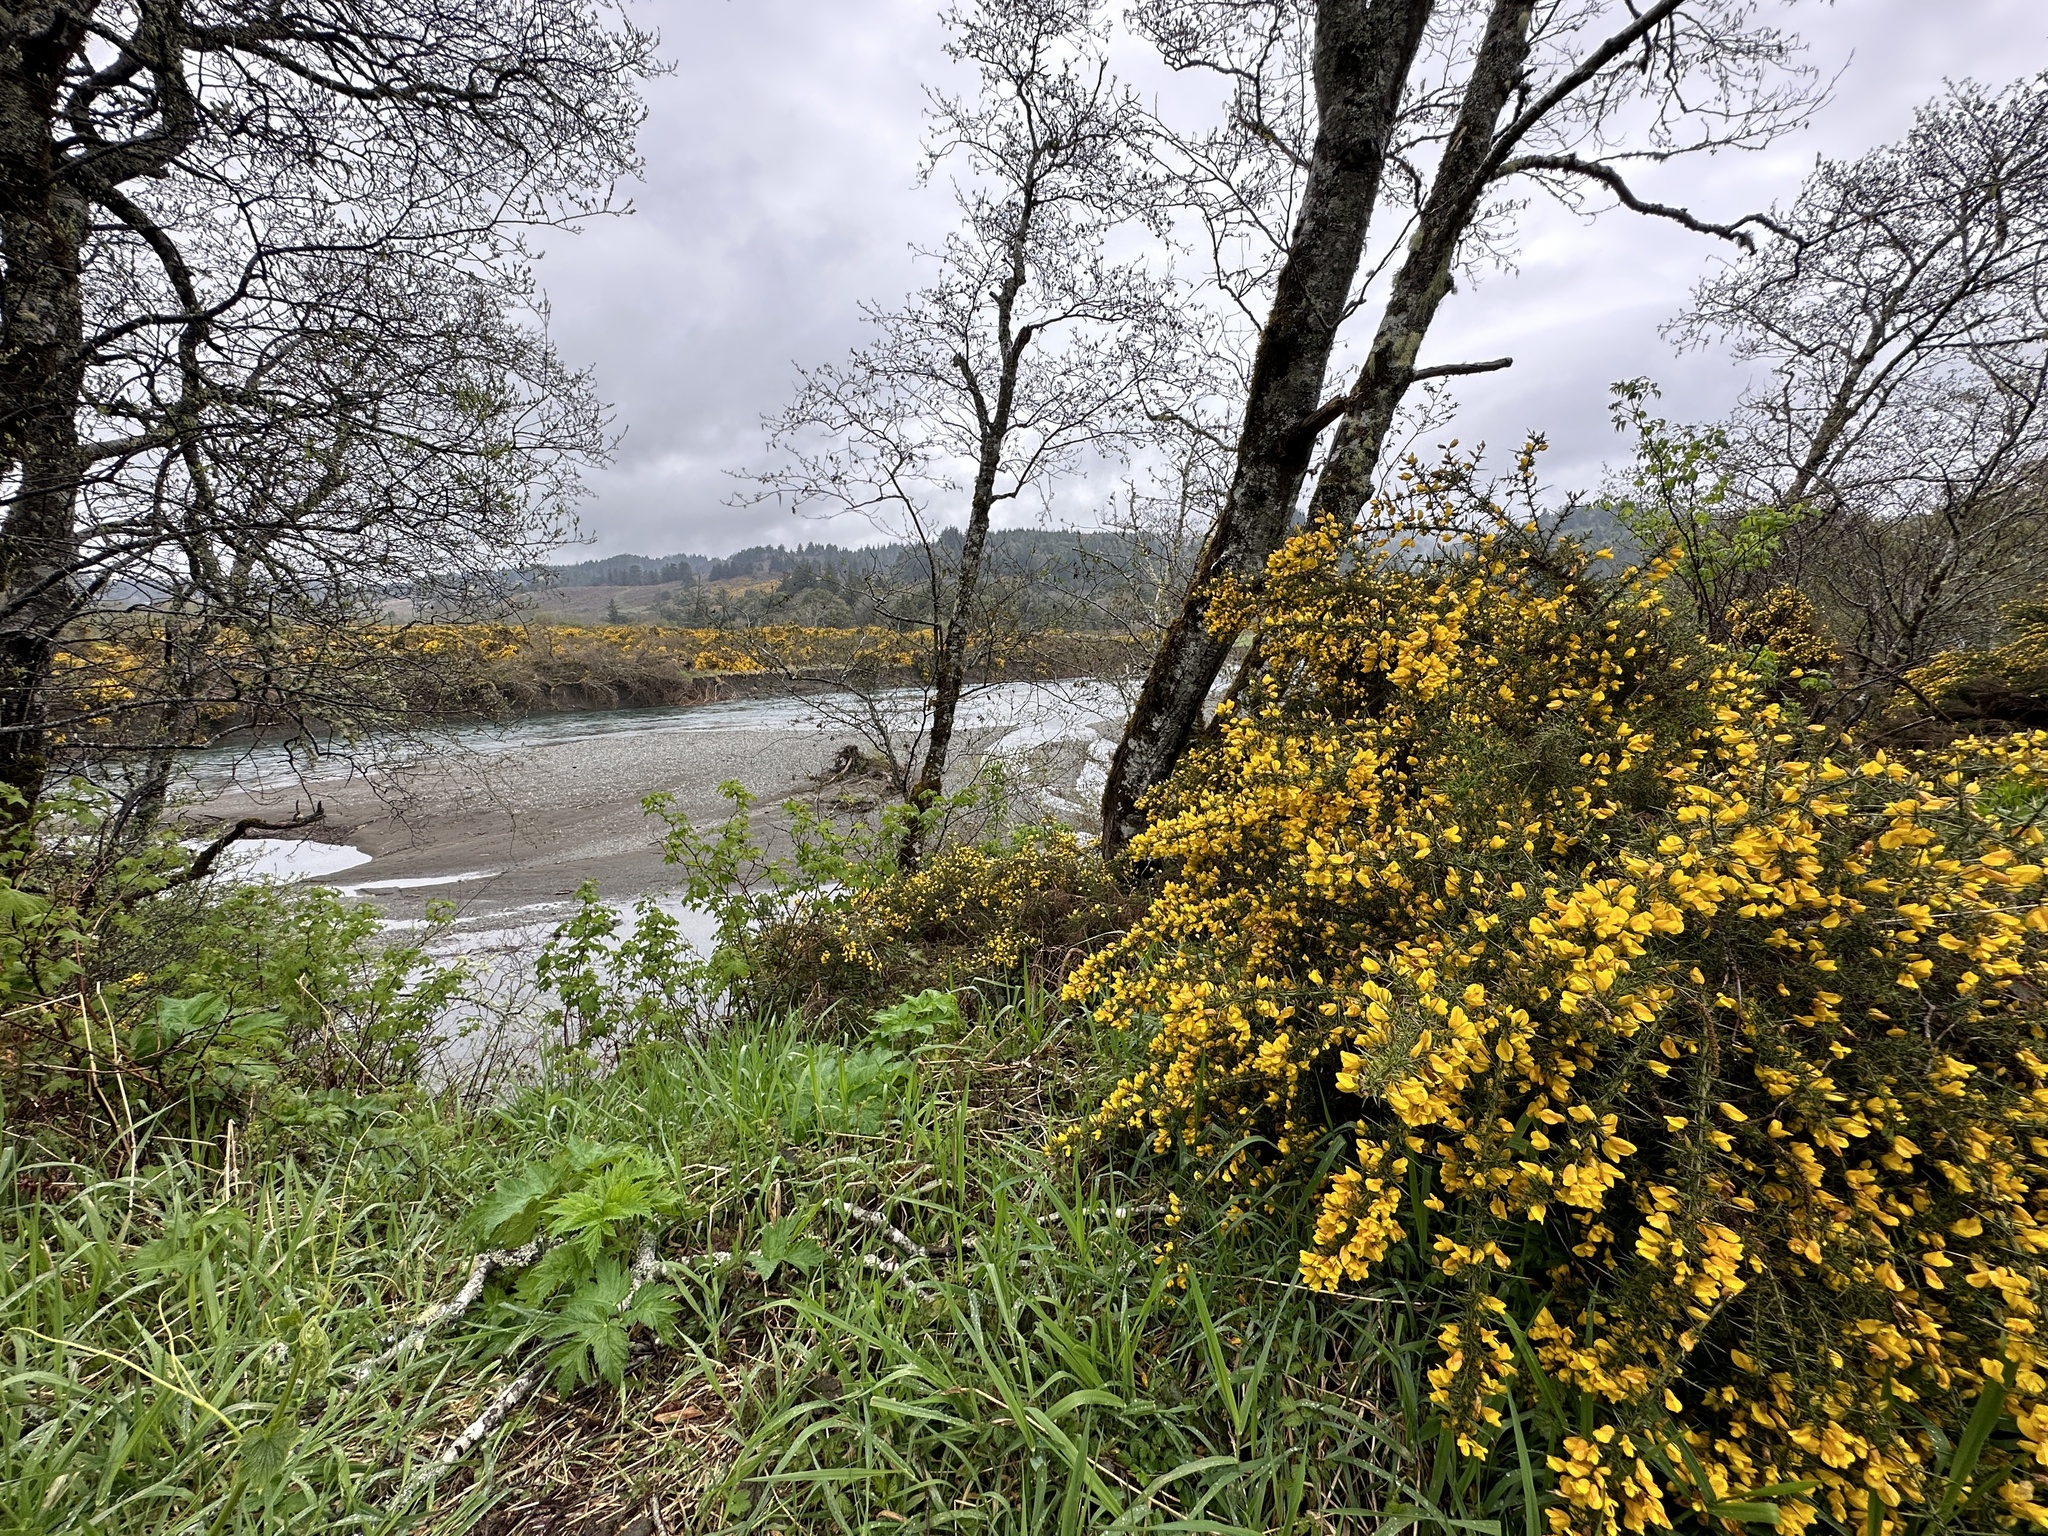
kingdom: Plantae
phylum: Tracheophyta
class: Magnoliopsida
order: Fabales
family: Fabaceae
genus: Ulex
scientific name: Ulex europaeus
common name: Common gorse
